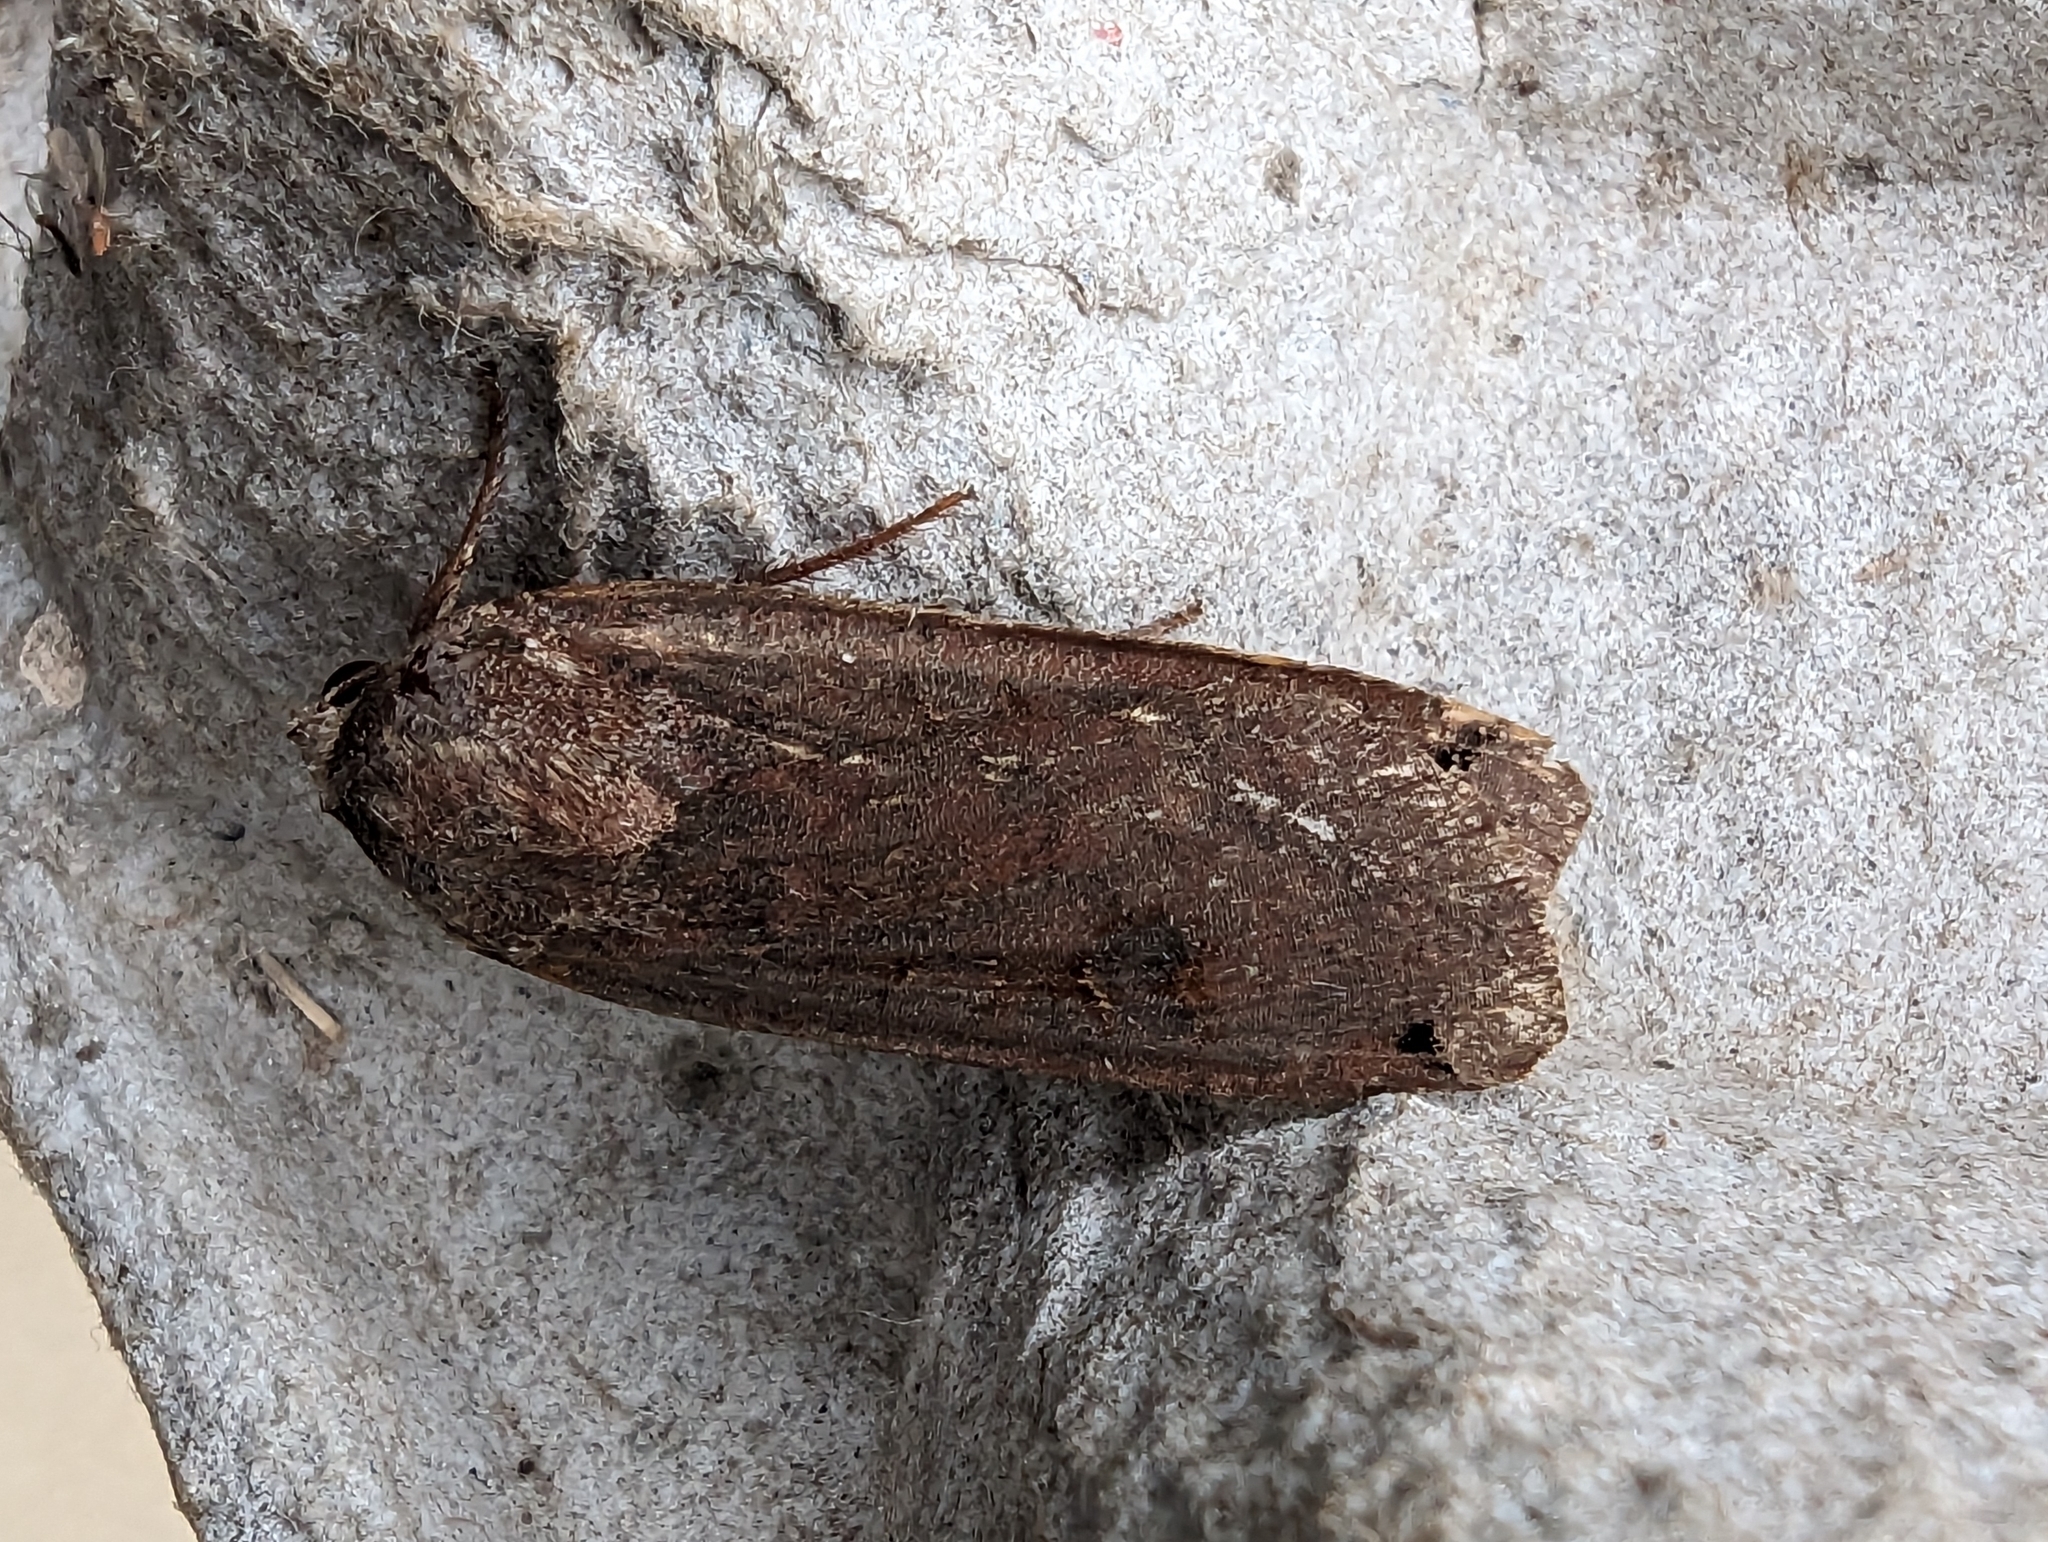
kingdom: Animalia
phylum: Arthropoda
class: Insecta
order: Lepidoptera
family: Noctuidae
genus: Noctua
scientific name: Noctua pronuba
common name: Large yellow underwing
